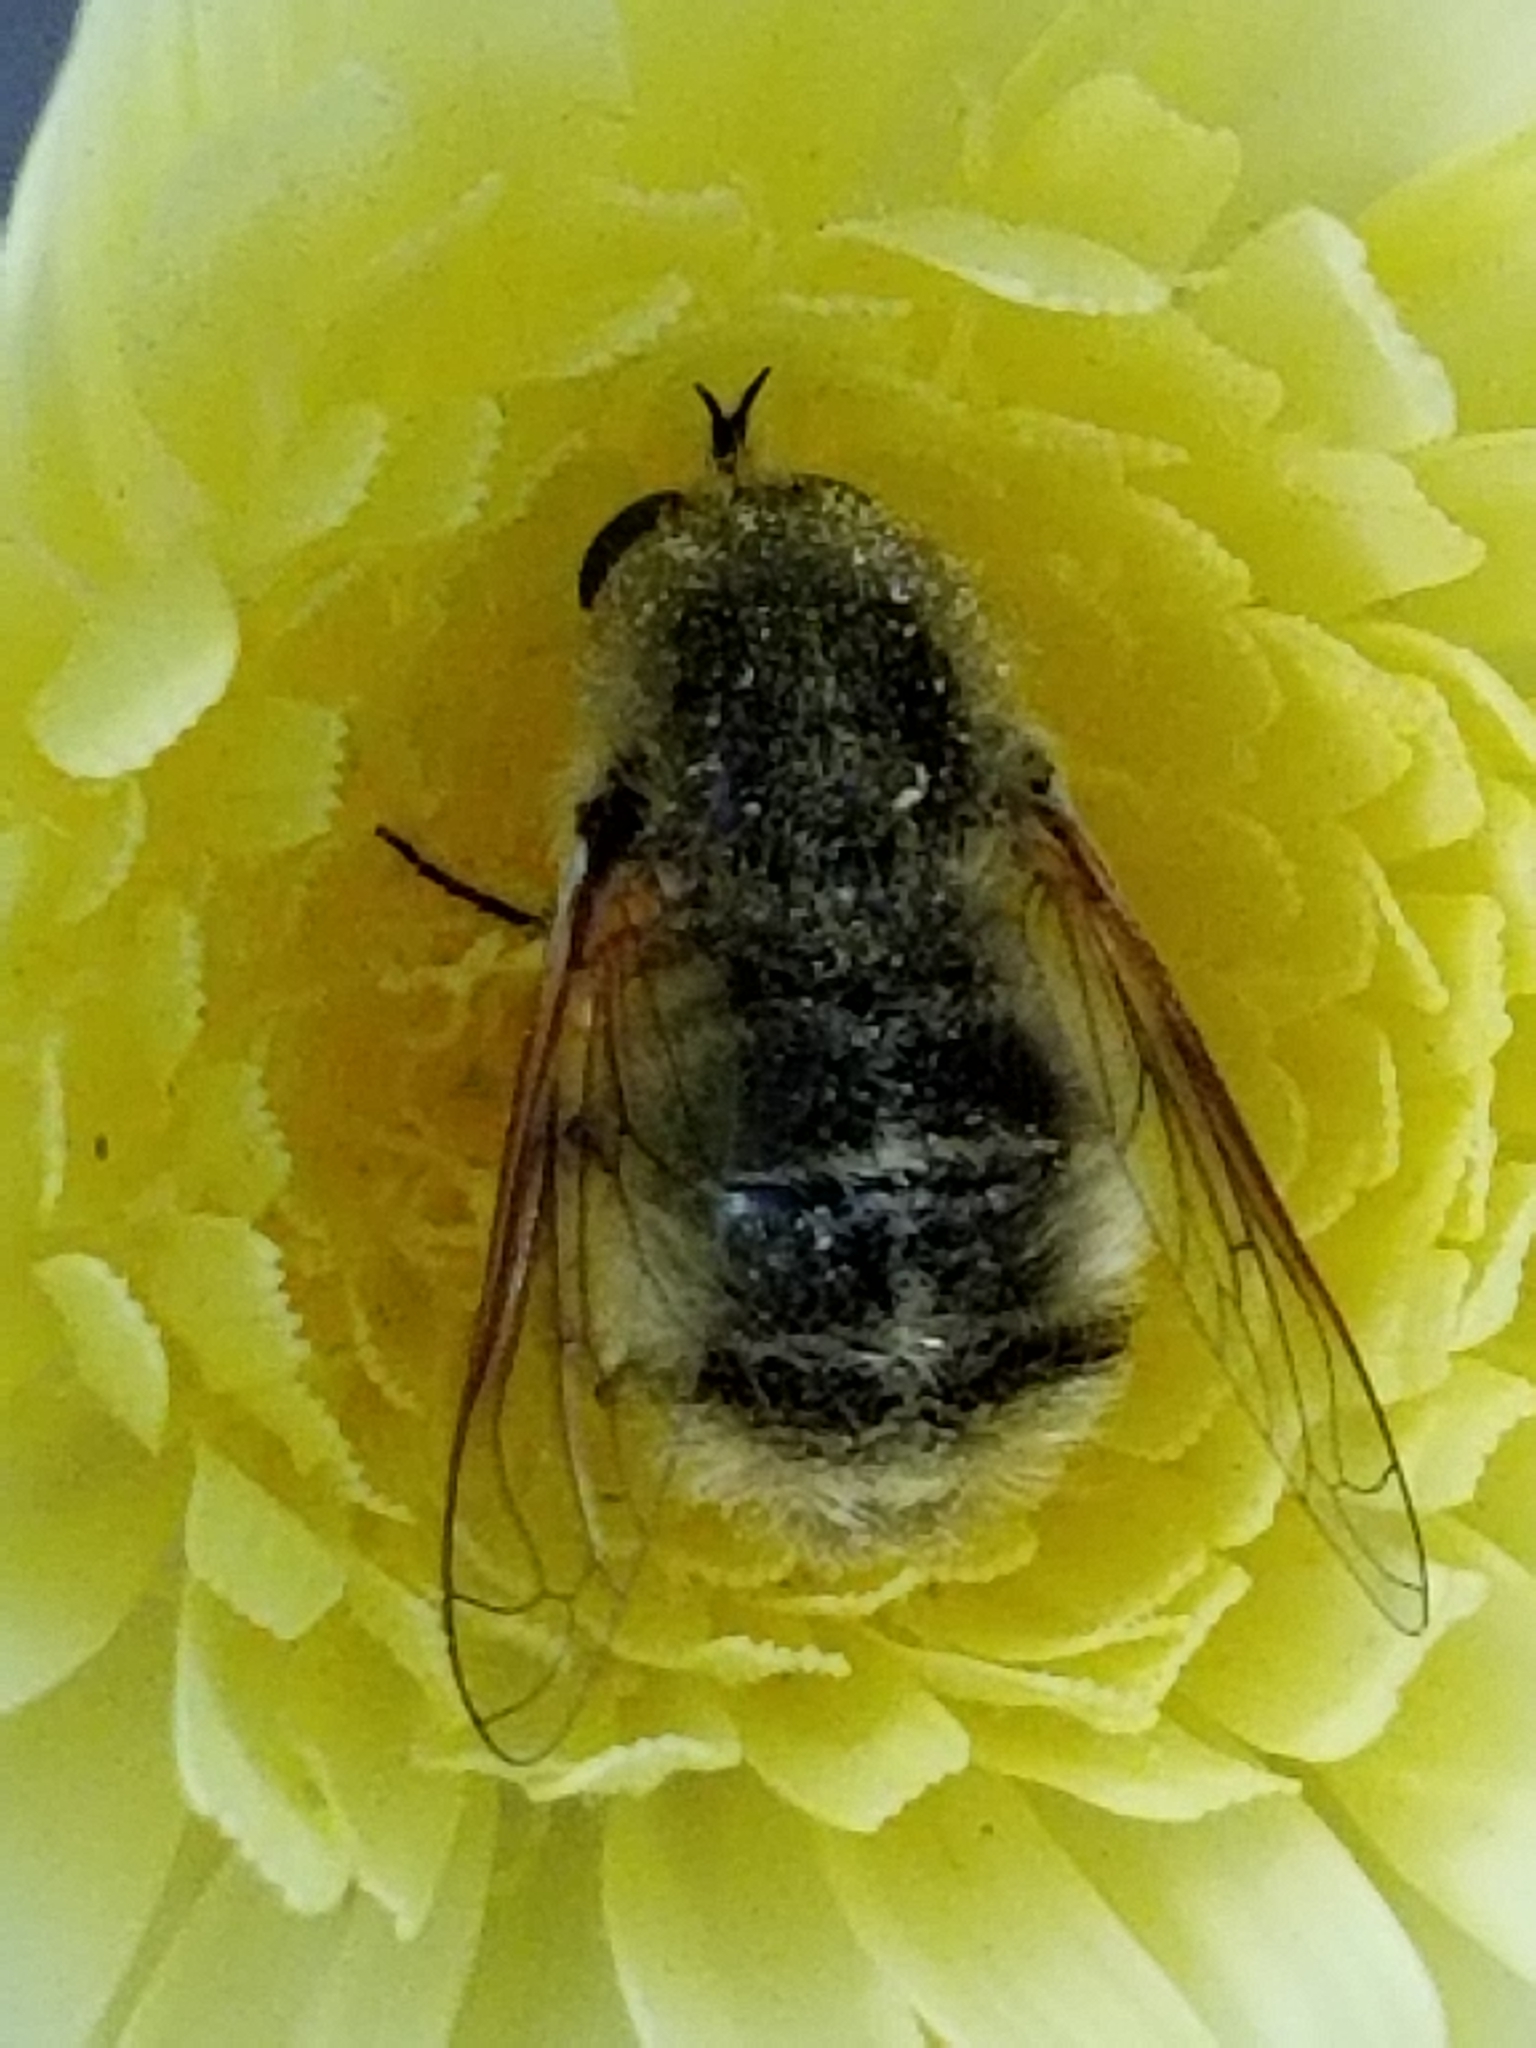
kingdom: Animalia
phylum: Arthropoda
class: Insecta
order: Diptera
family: Bombyliidae
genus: Lordotus
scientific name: Lordotus
